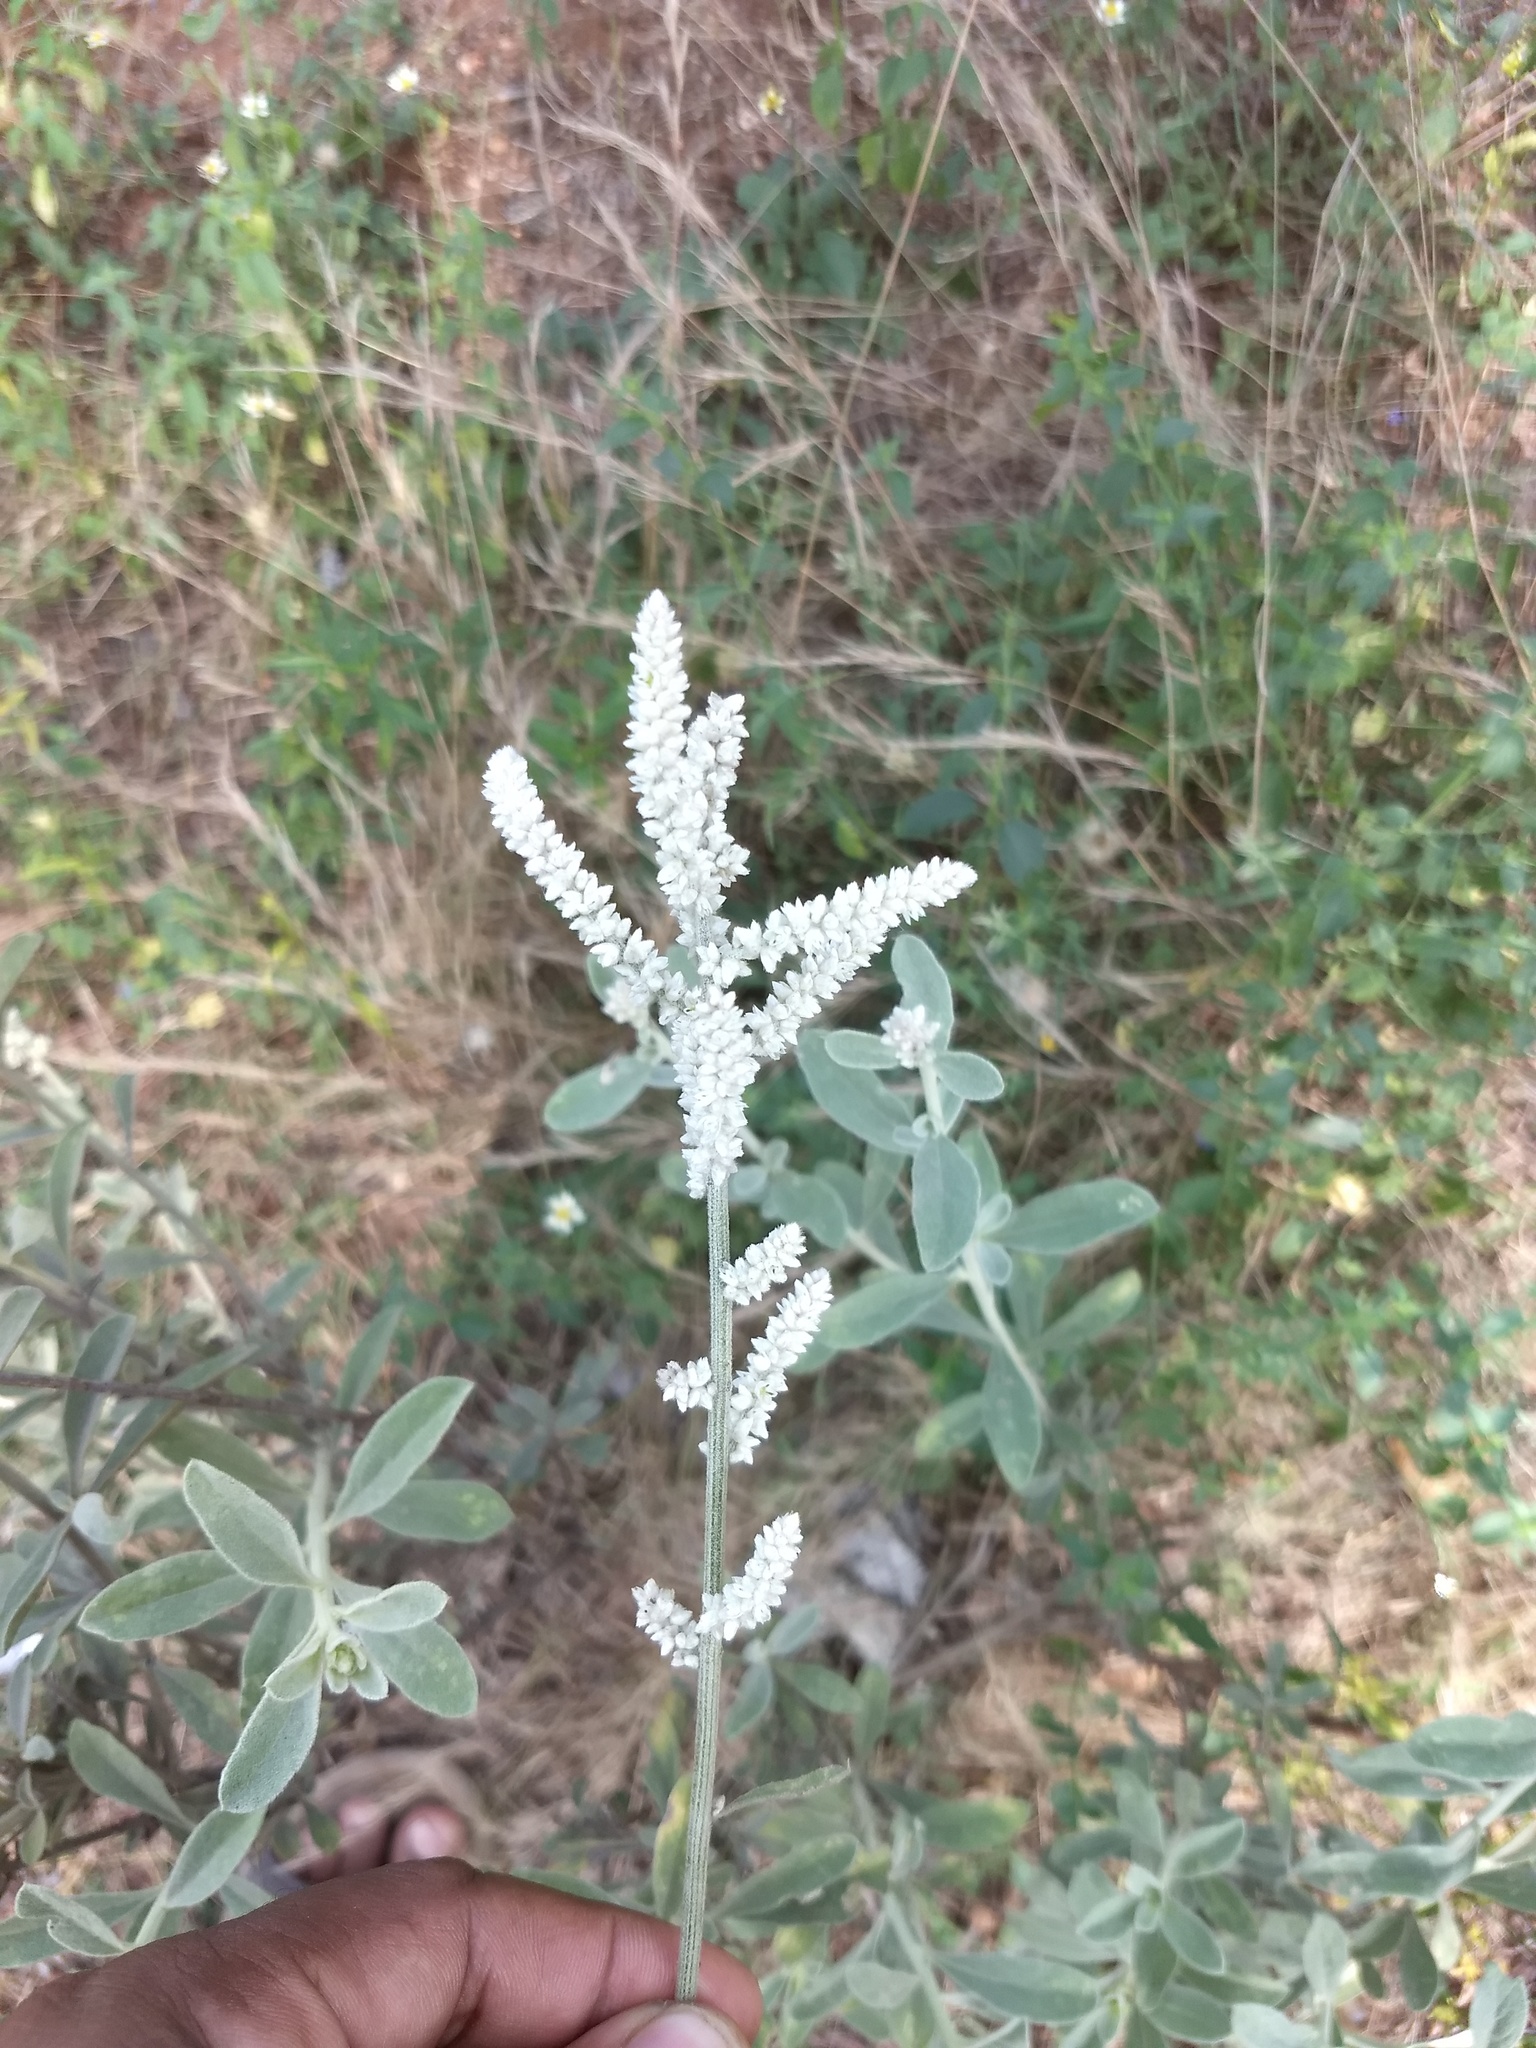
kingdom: Plantae
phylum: Tracheophyta
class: Magnoliopsida
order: Caryophyllales
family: Amaranthaceae
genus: Aerva
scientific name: Aerva javanica
